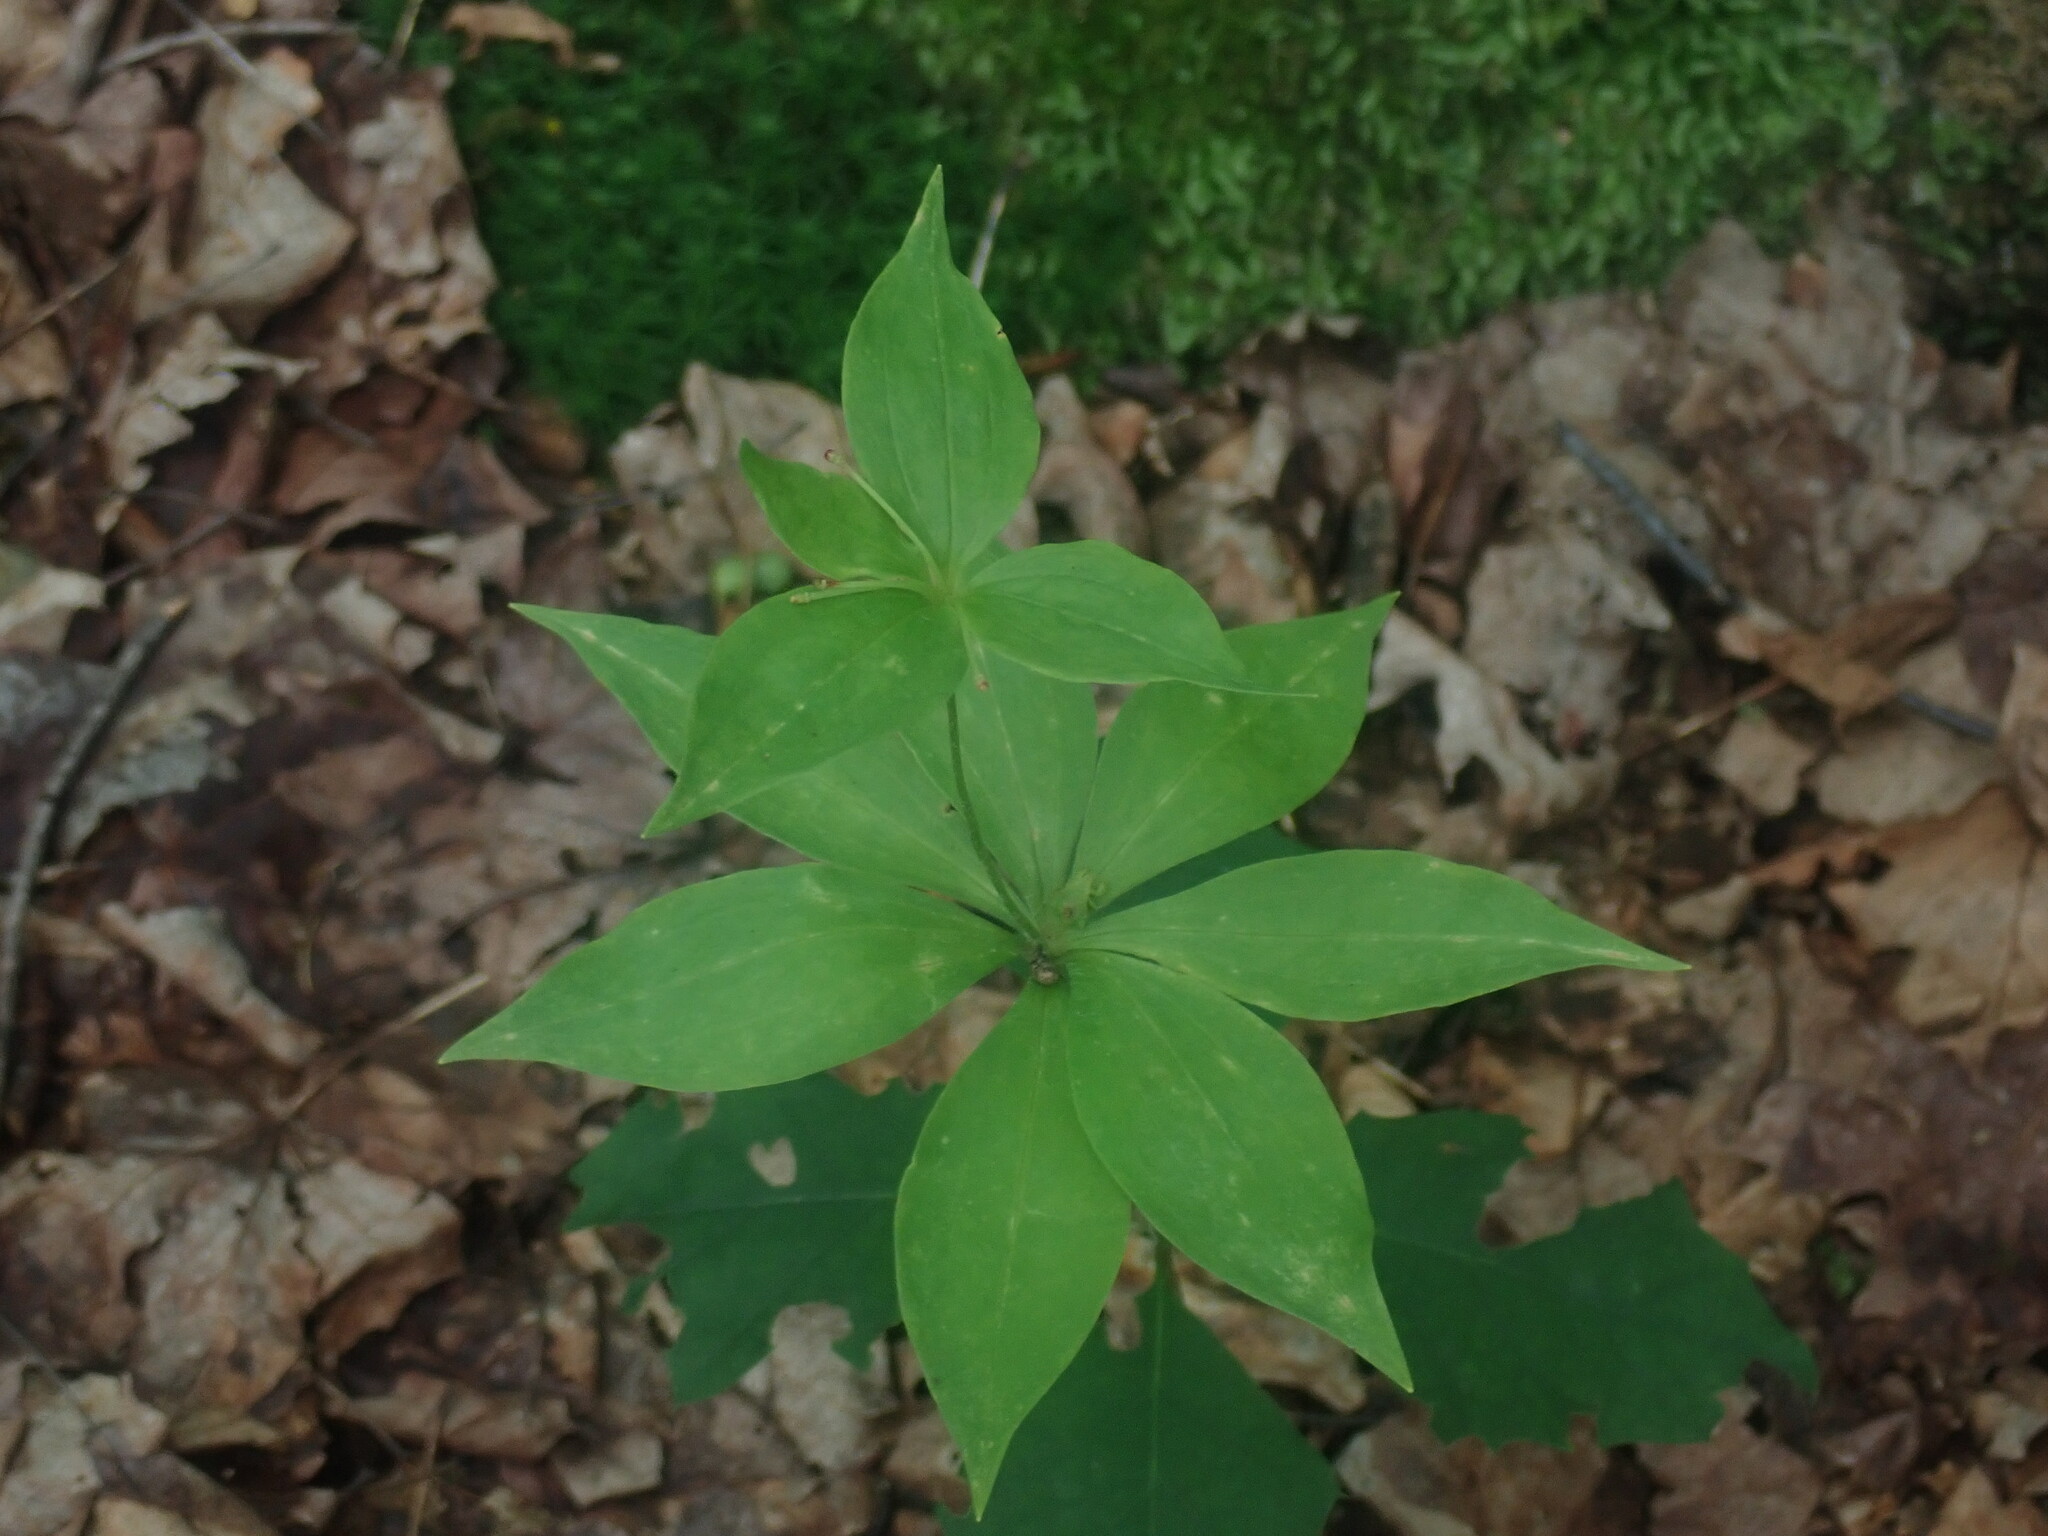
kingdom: Plantae
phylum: Tracheophyta
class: Liliopsida
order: Liliales
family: Liliaceae
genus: Medeola
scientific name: Medeola virginiana
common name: Indian cucumber-root
